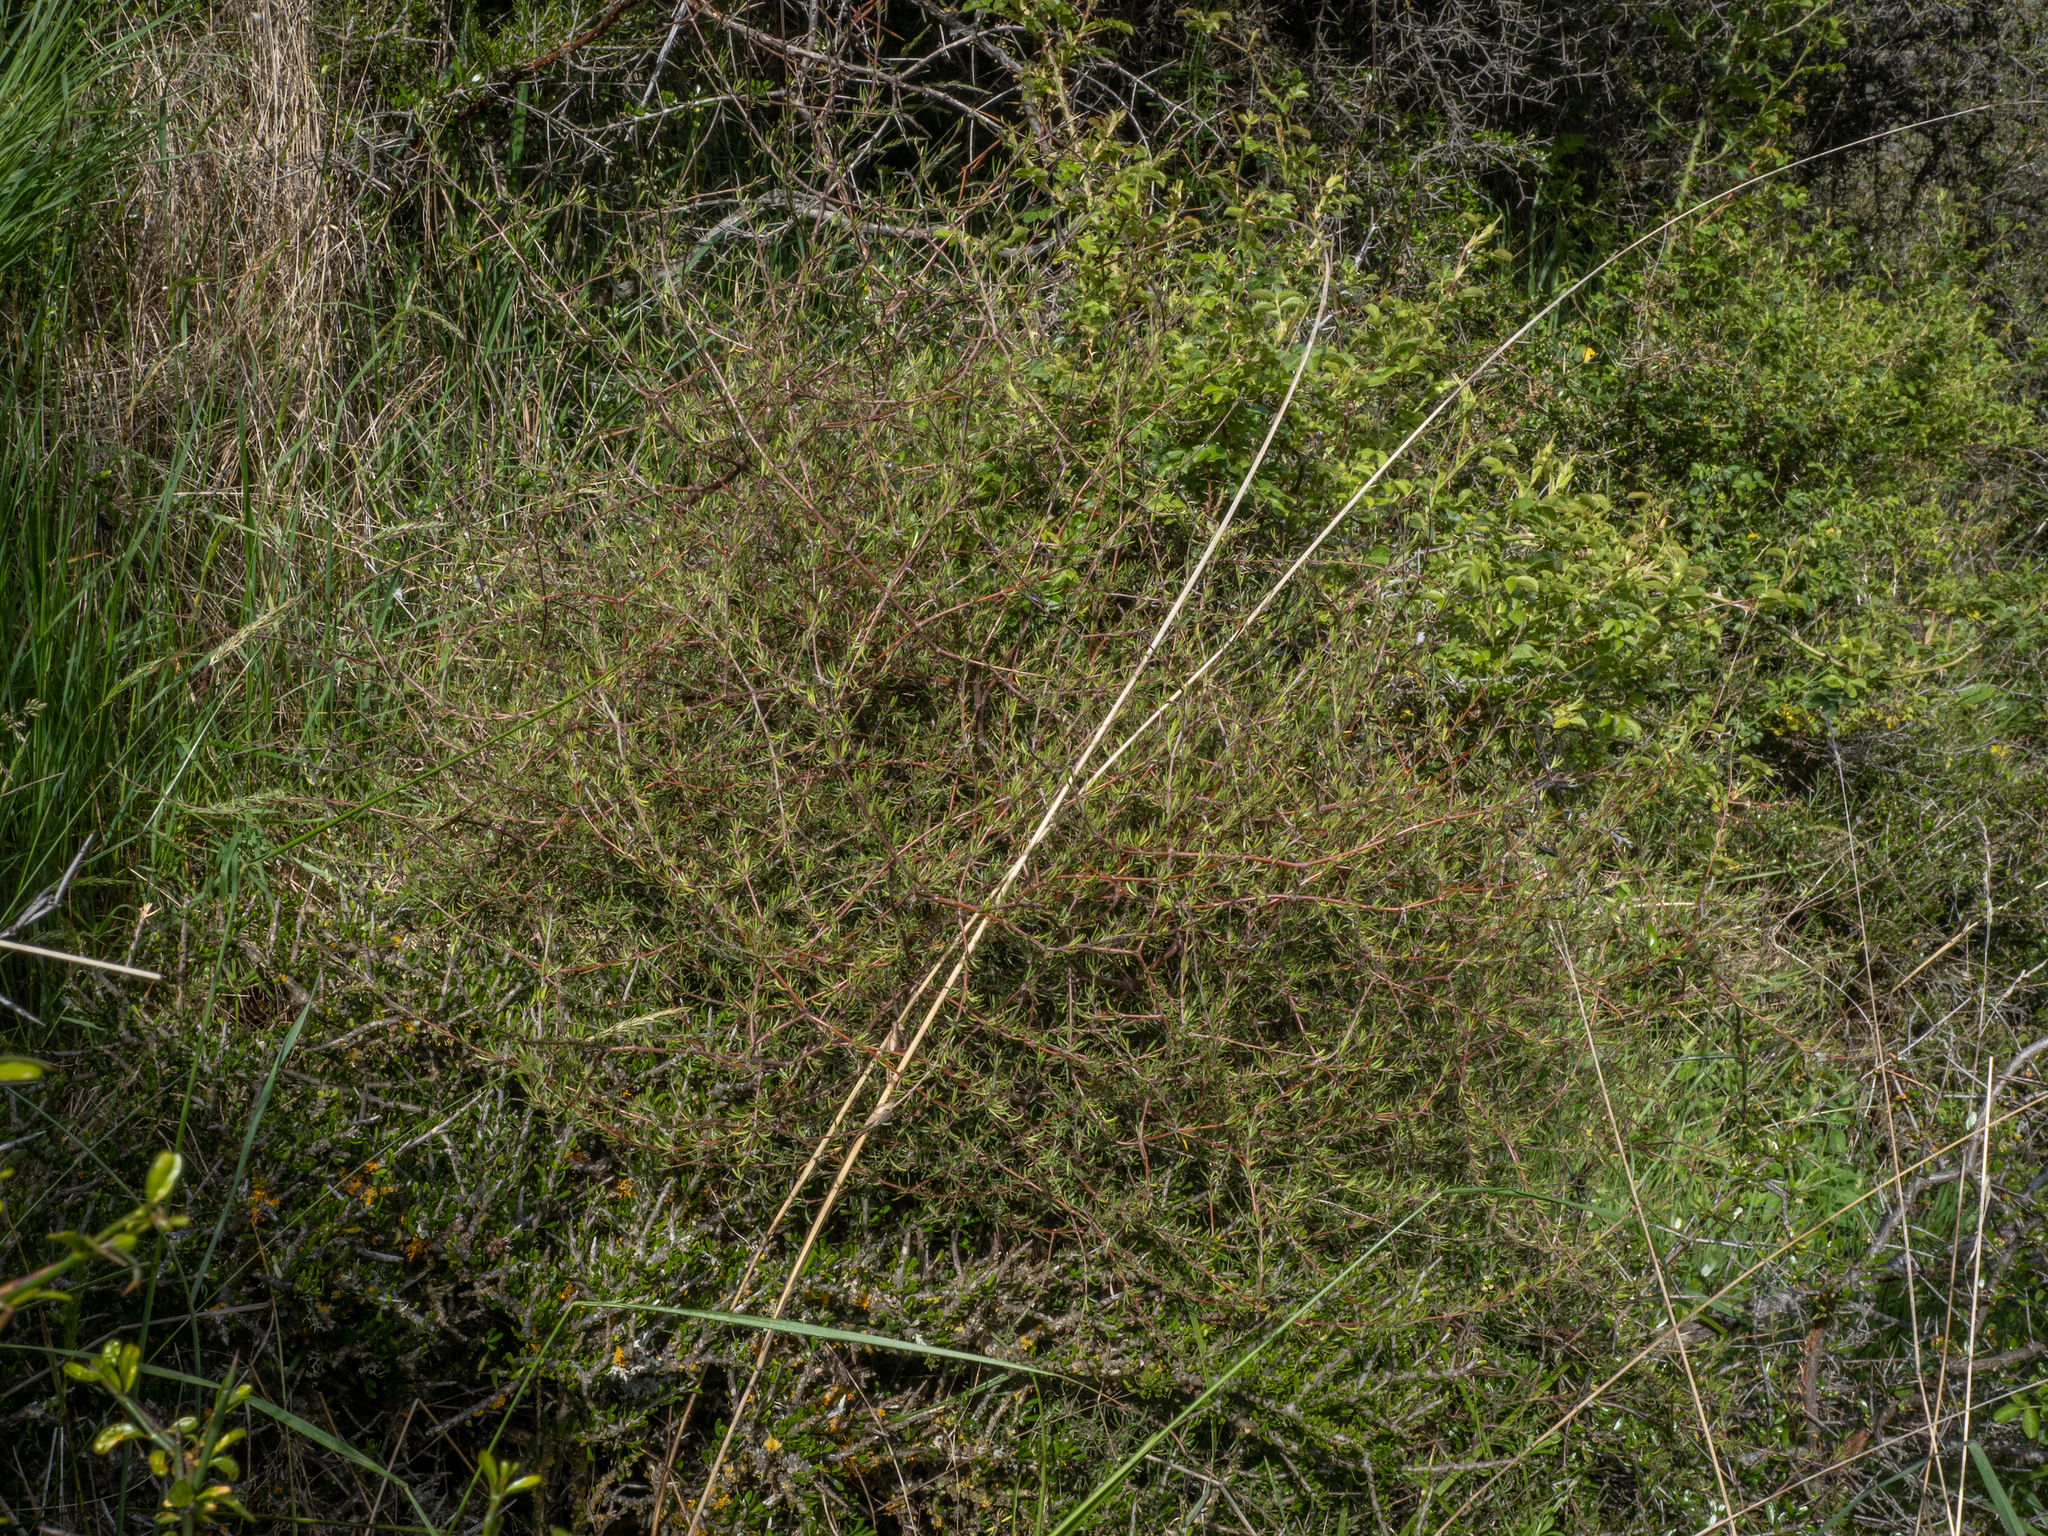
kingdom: Plantae
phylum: Tracheophyta
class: Magnoliopsida
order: Gentianales
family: Rubiaceae
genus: Coprosma
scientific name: Coprosma intertexta
